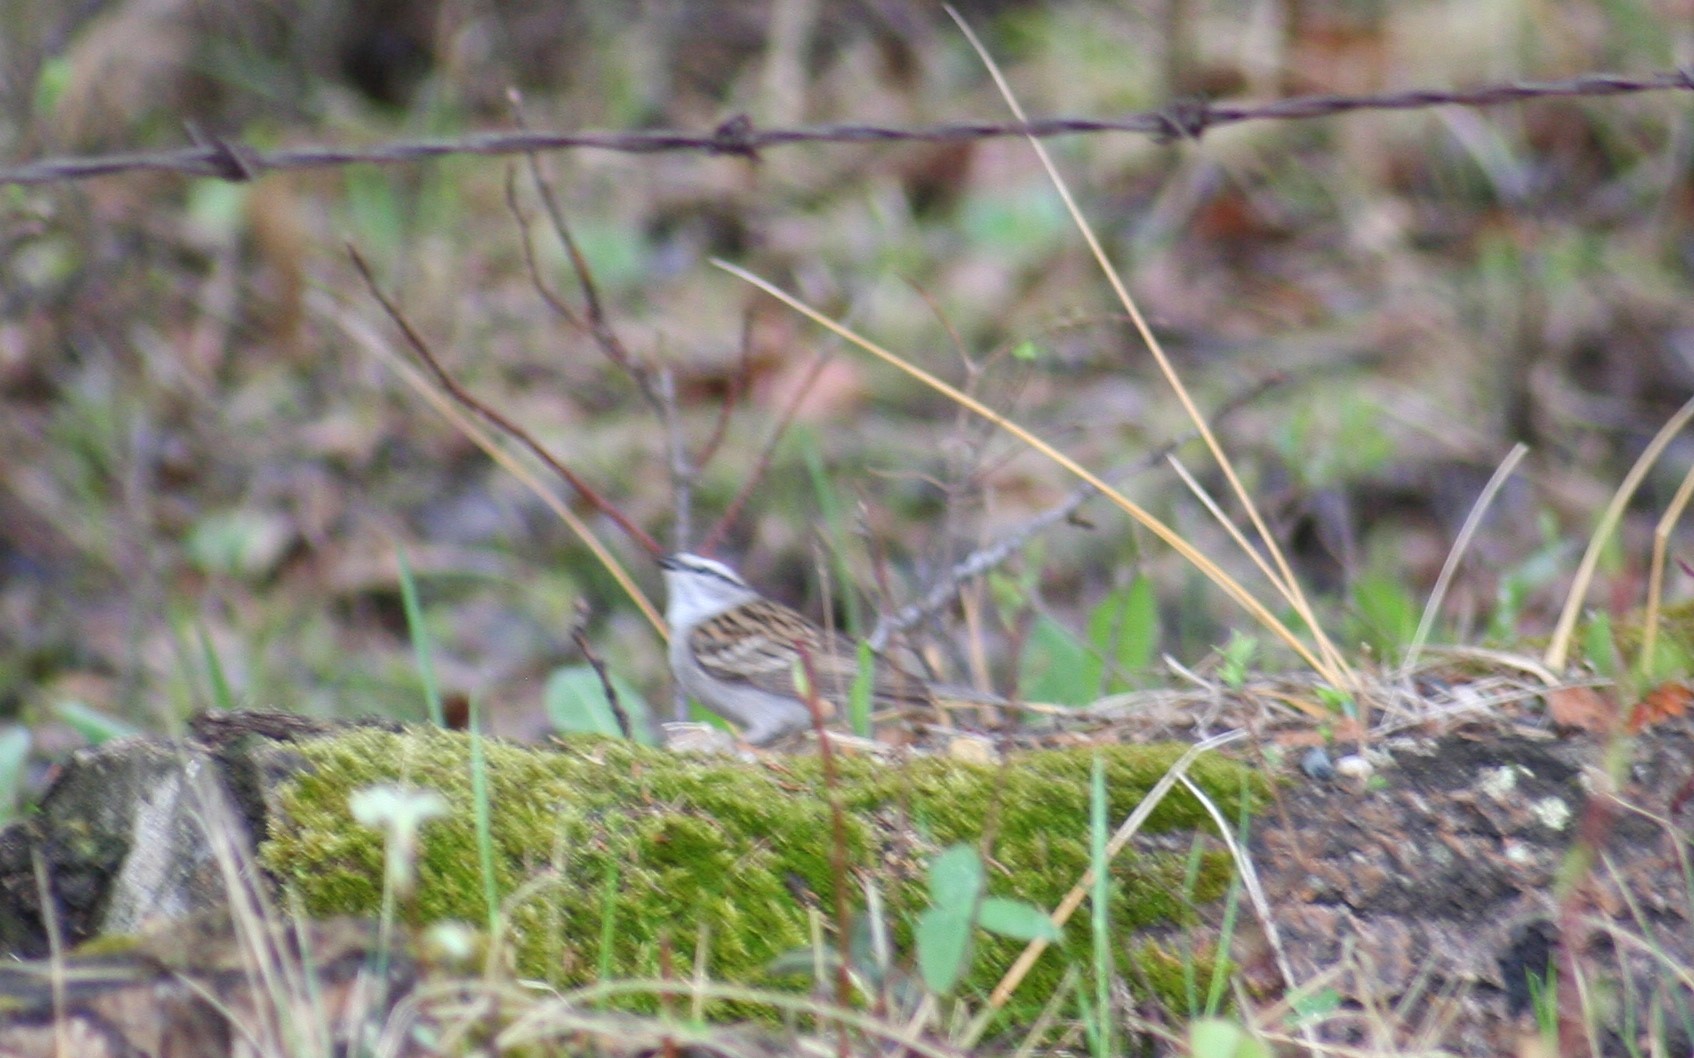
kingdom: Animalia
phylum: Chordata
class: Aves
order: Passeriformes
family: Passerellidae
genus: Spizella
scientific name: Spizella passerina
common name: Chipping sparrow
